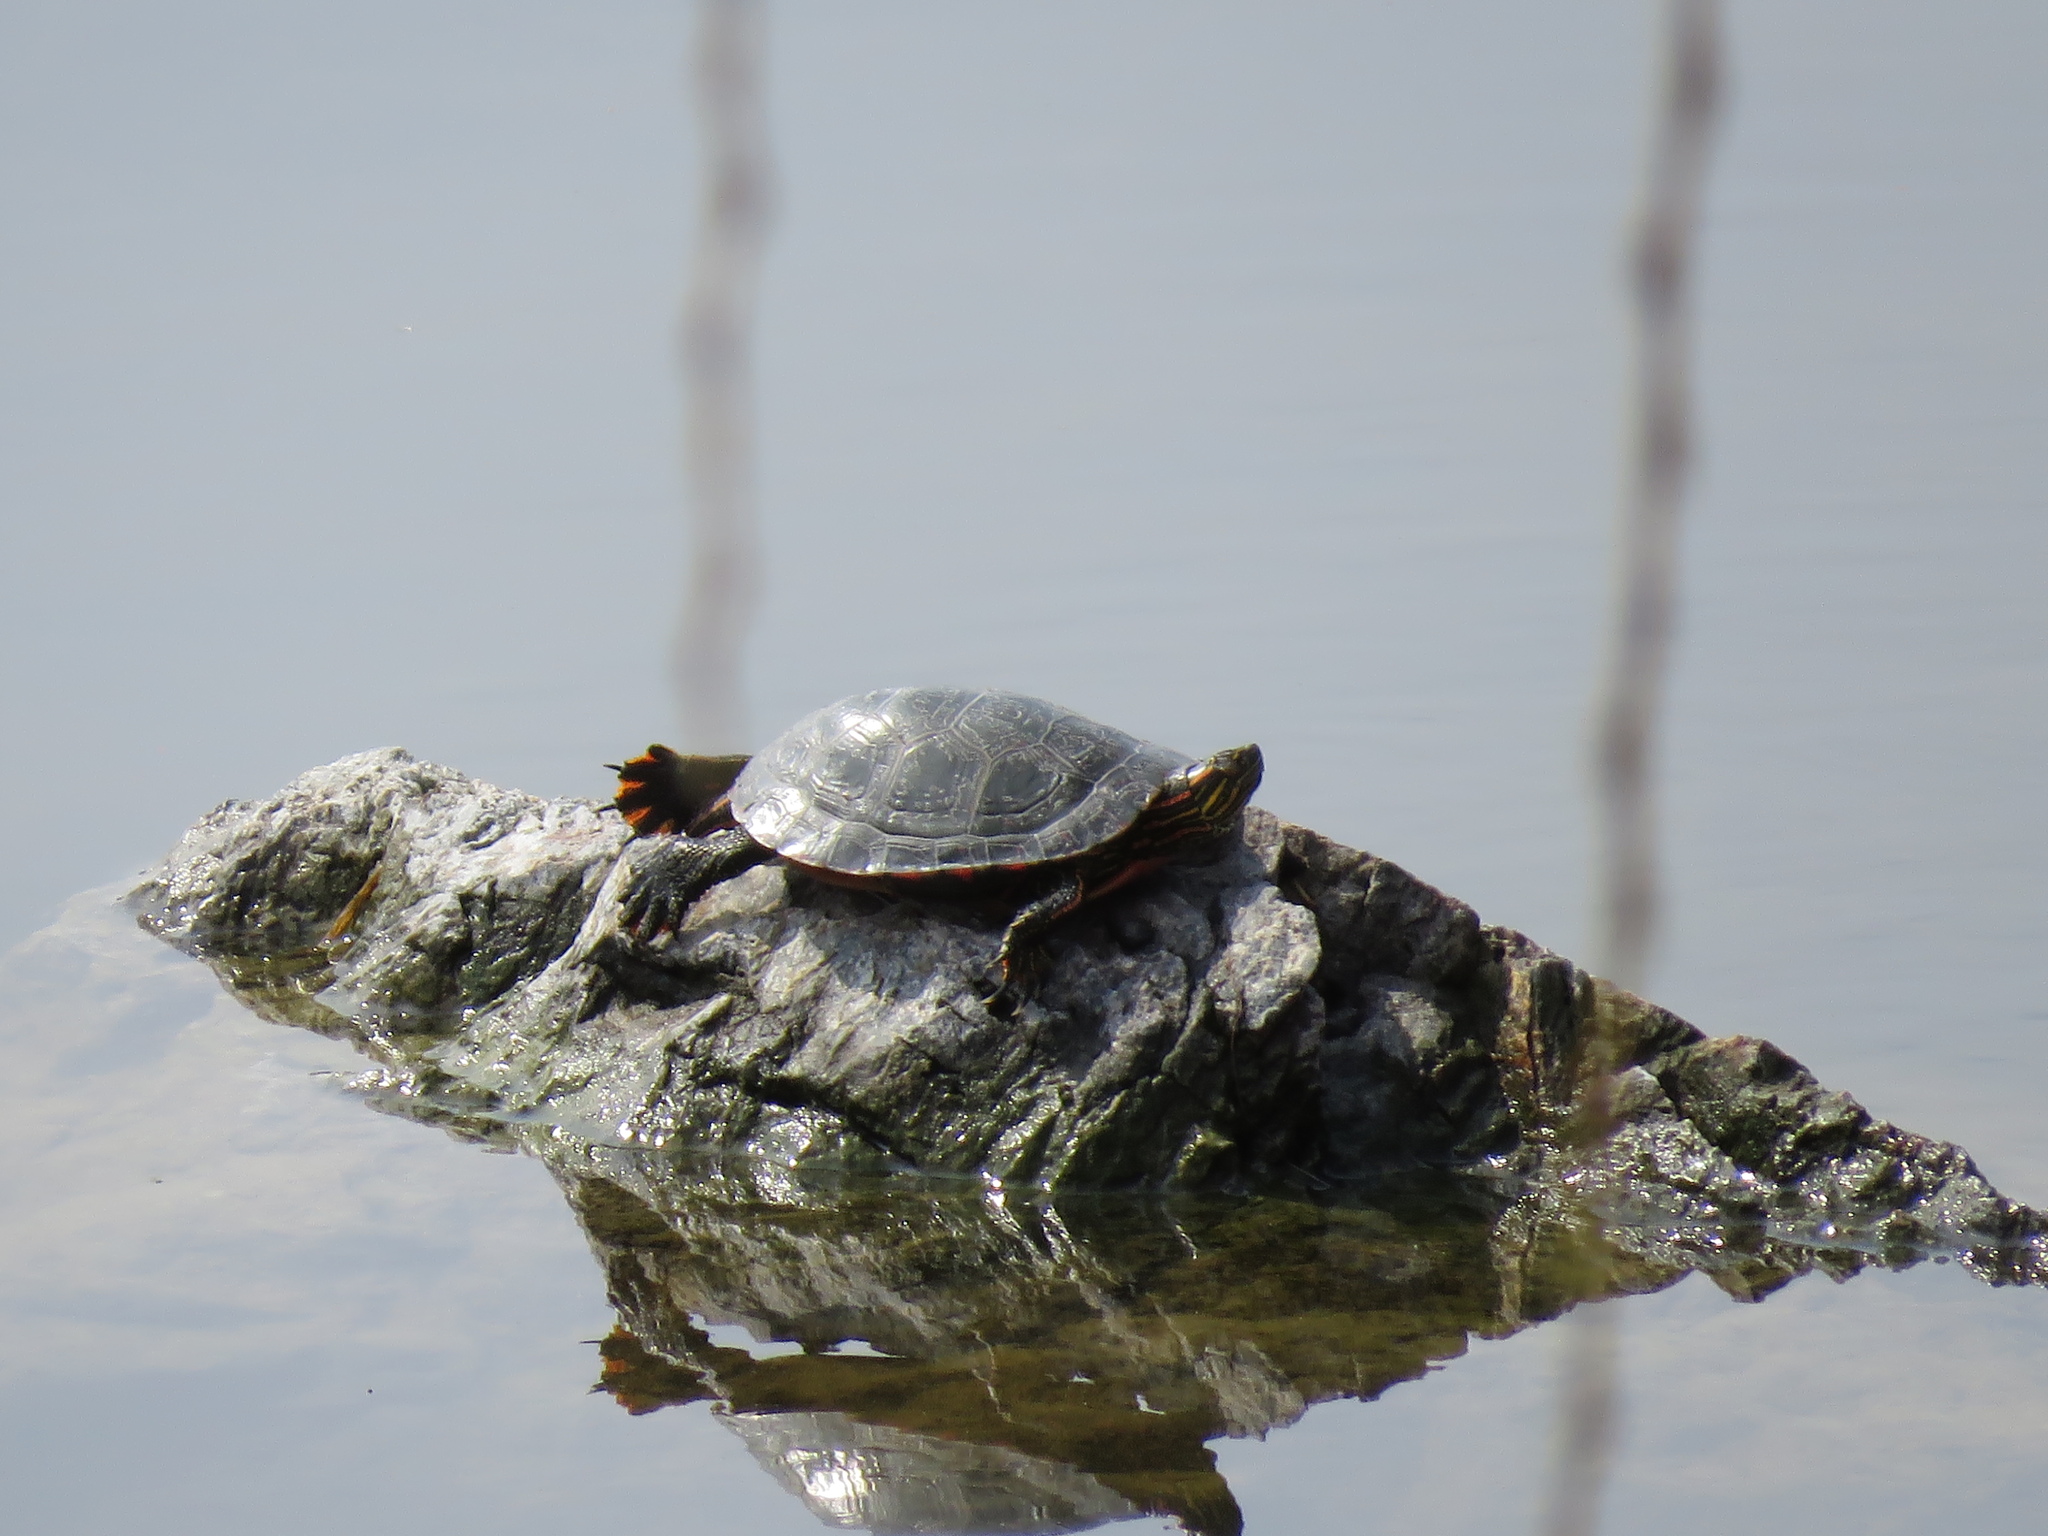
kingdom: Animalia
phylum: Chordata
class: Testudines
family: Emydidae
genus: Chrysemys
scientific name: Chrysemys picta
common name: Painted turtle
